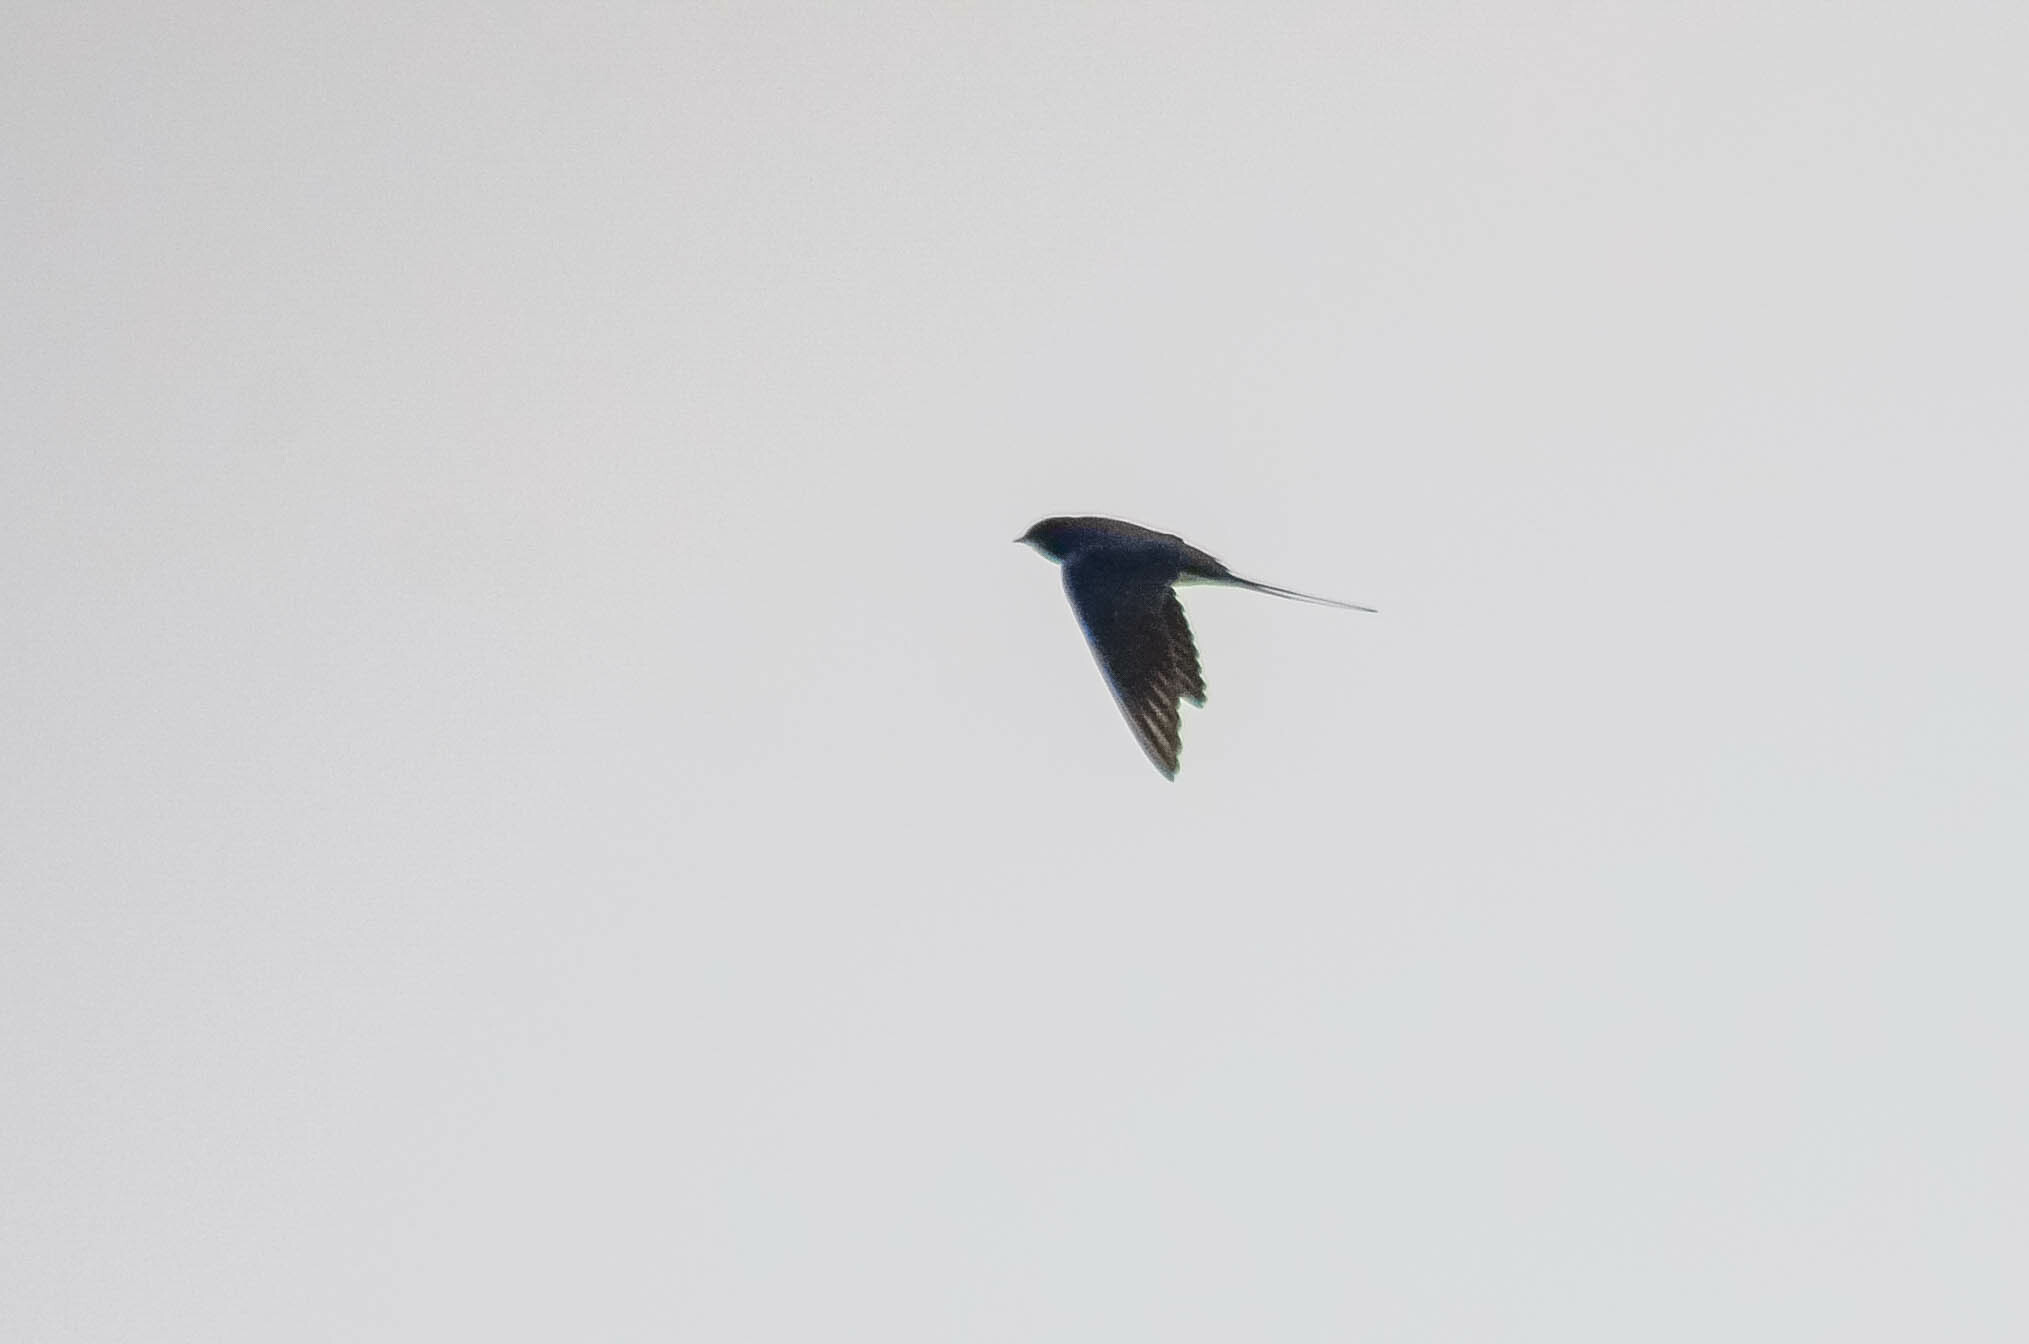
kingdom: Animalia
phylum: Chordata
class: Aves
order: Passeriformes
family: Hirundinidae
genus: Hirundo
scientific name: Hirundo rustica
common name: Barn swallow
